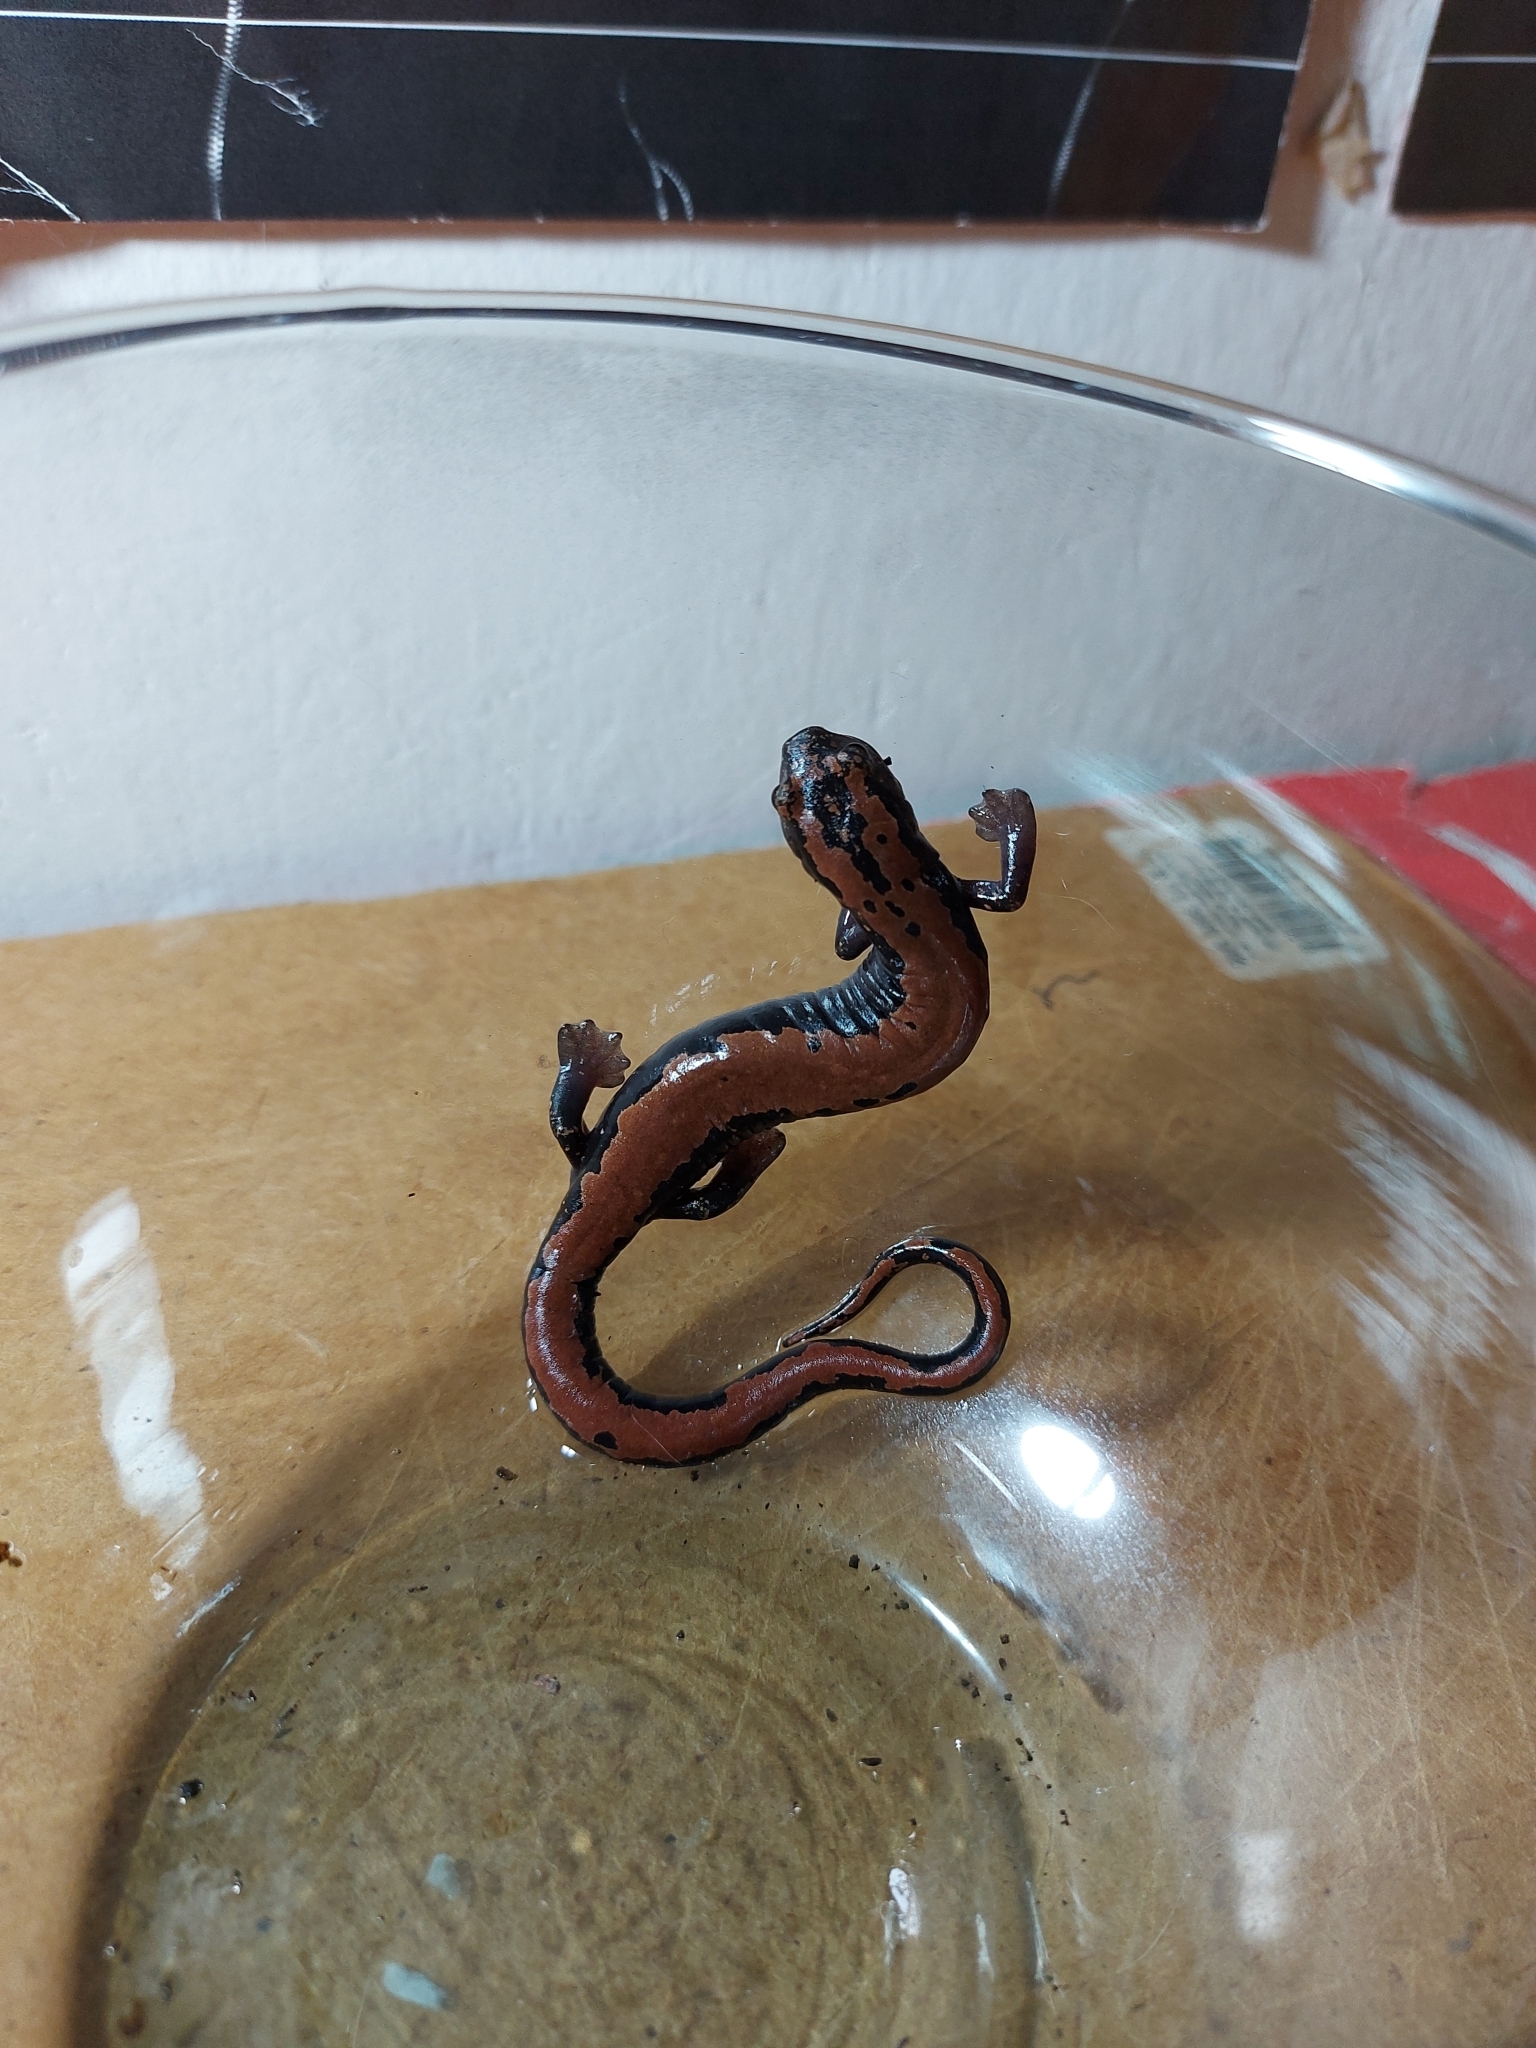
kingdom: Animalia
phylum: Chordata
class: Amphibia
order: Caudata
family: Plethodontidae
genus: Bolitoglossa
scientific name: Bolitoglossa platydactyla
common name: Broad-footed salamander
